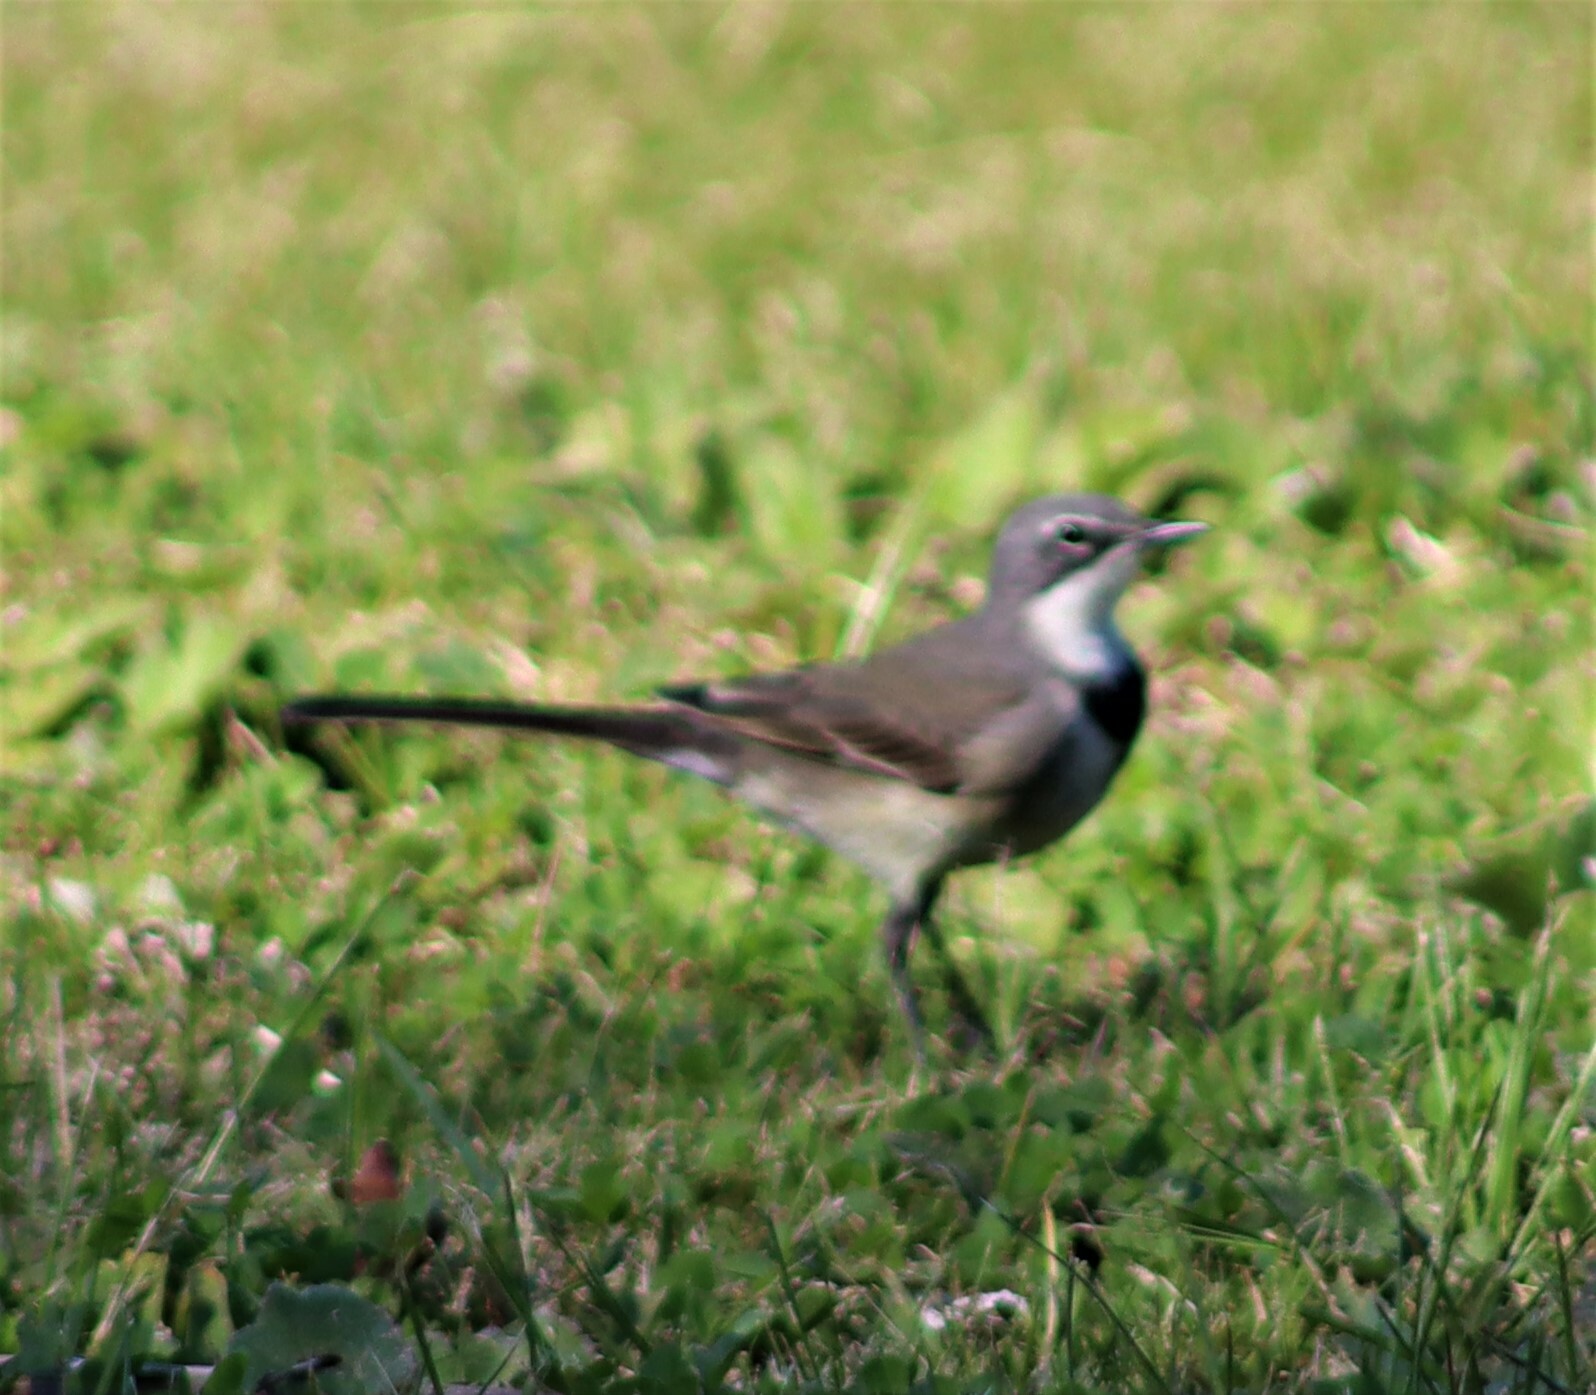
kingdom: Animalia
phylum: Chordata
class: Aves
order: Passeriformes
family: Motacillidae
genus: Motacilla
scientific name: Motacilla capensis
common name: Cape wagtail
